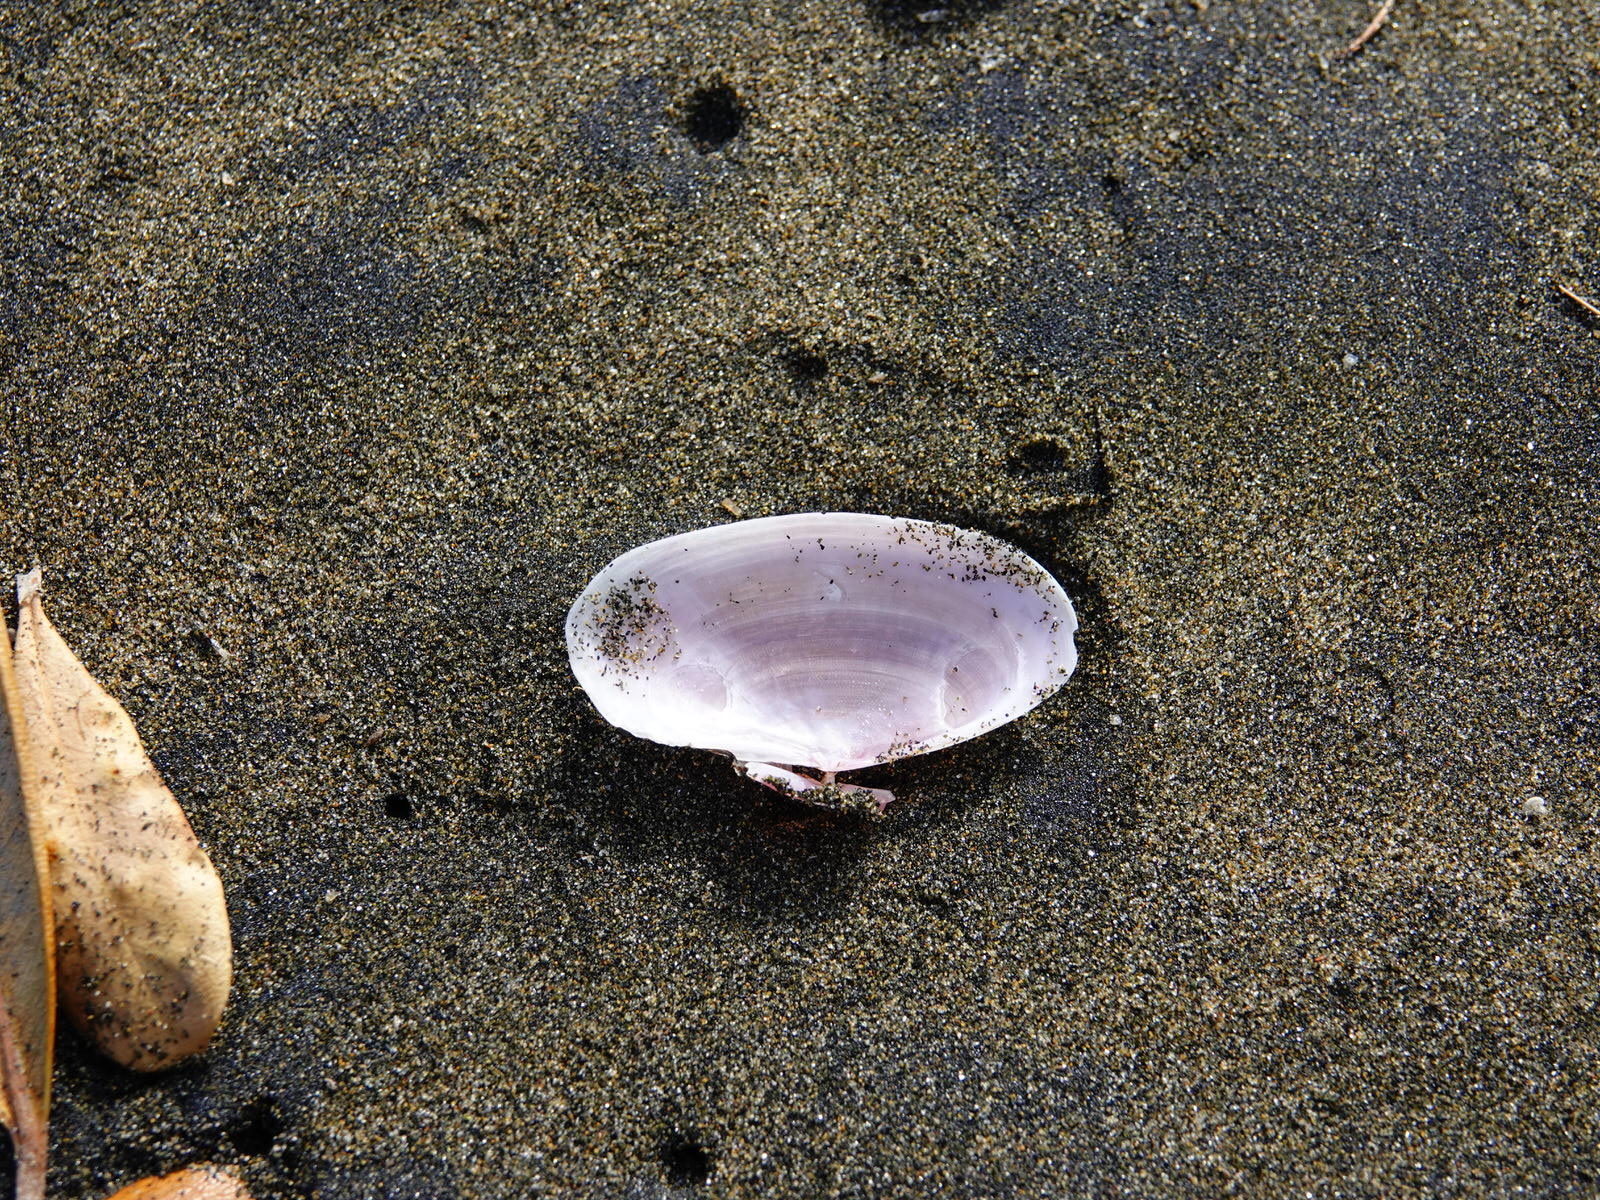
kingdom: Animalia
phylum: Mollusca
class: Bivalvia
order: Cardiida
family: Psammobiidae
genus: Gari
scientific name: Gari lineolata
